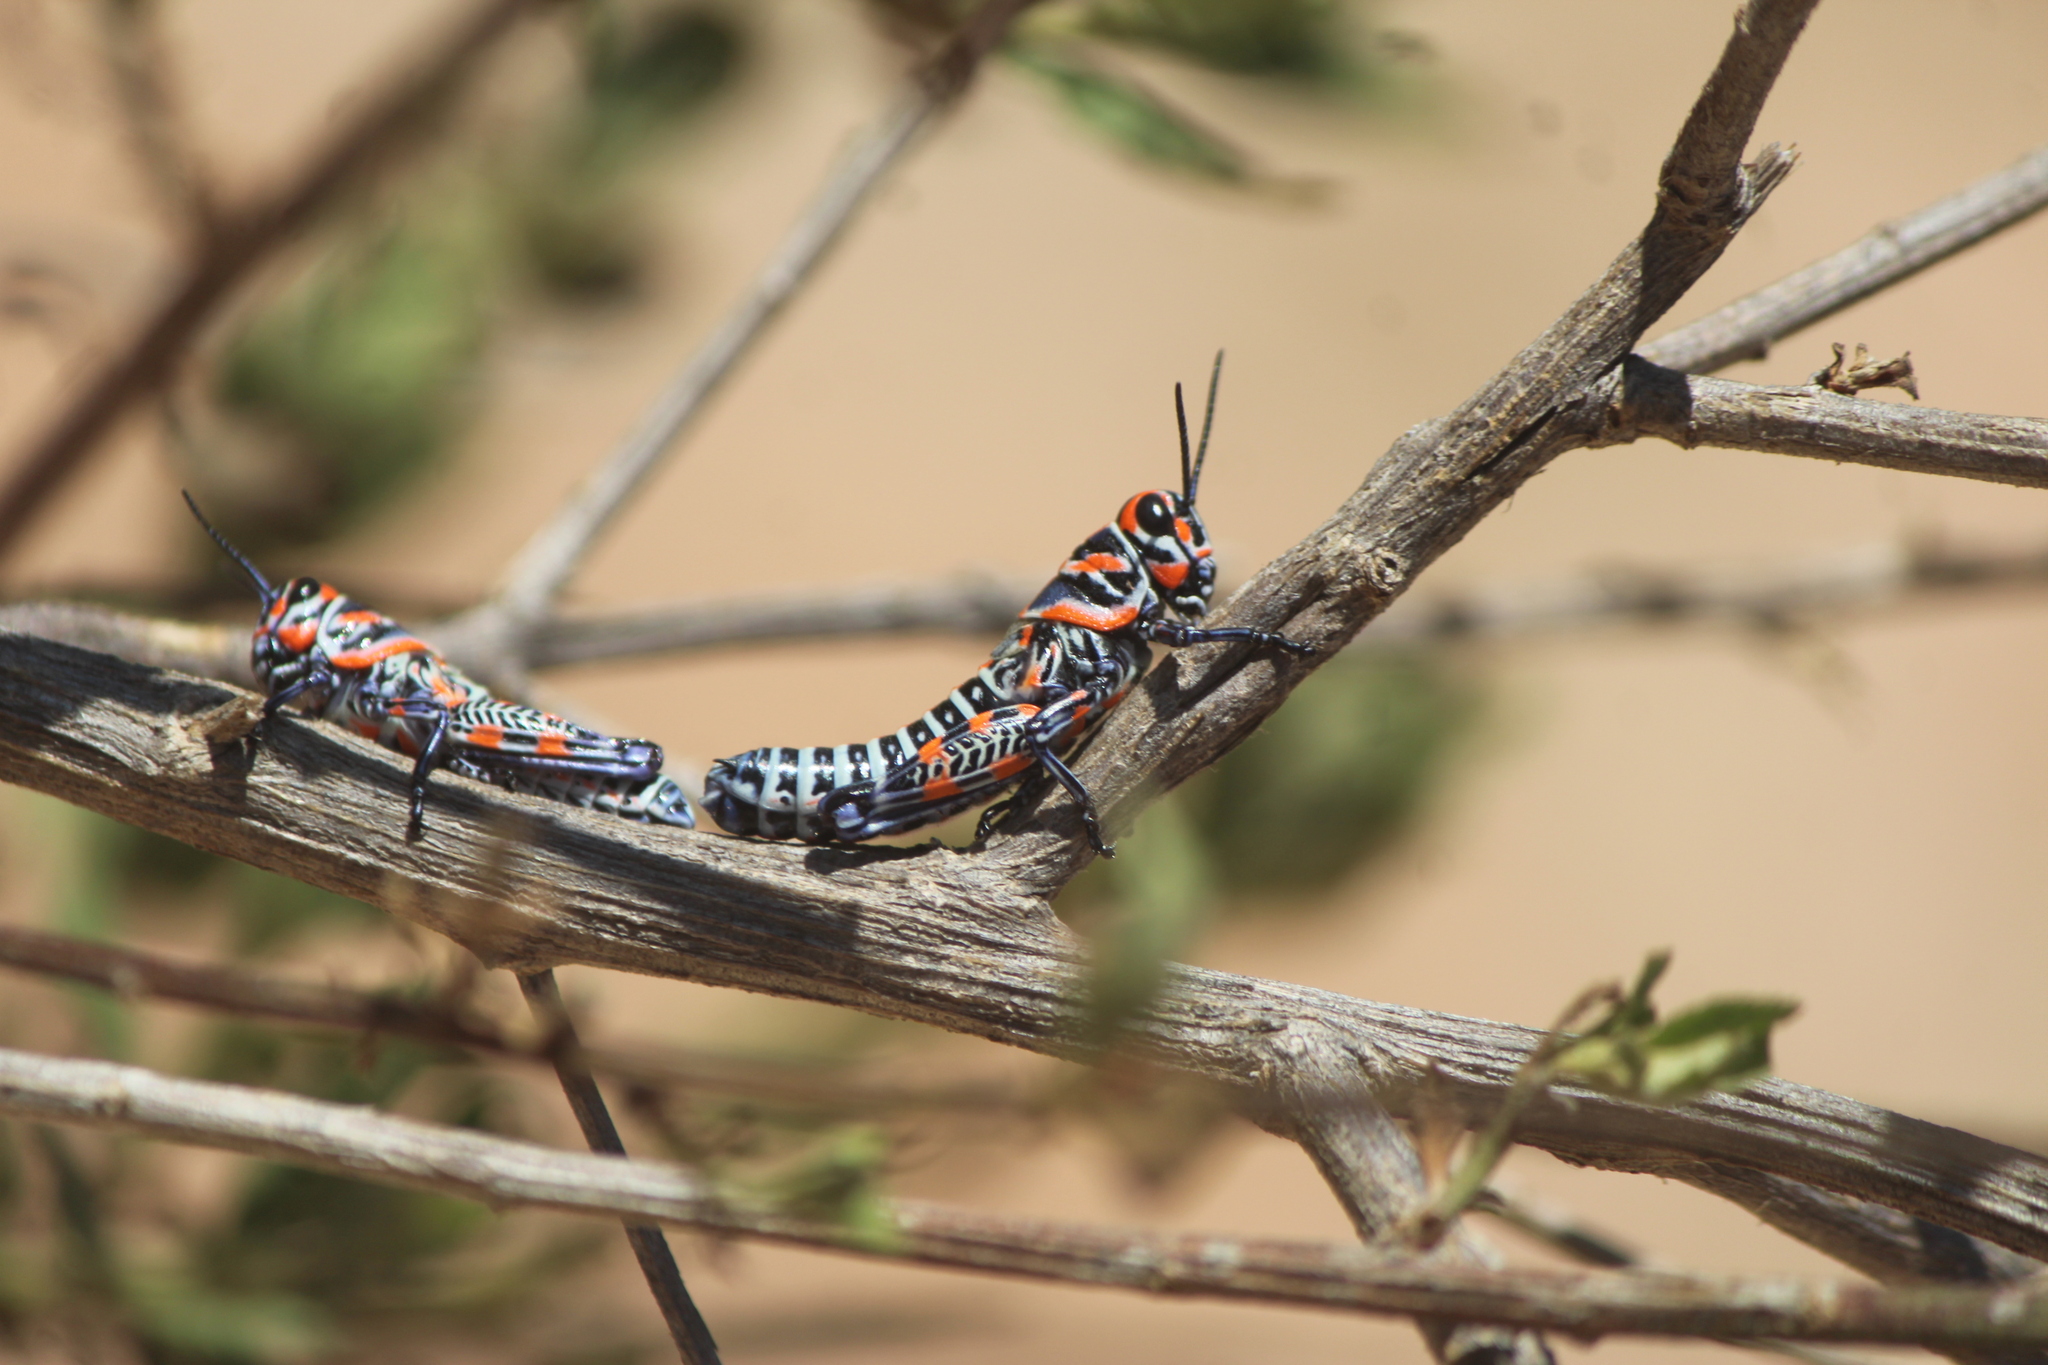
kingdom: Animalia
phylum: Arthropoda
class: Insecta
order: Orthoptera
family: Acrididae
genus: Dactylotum
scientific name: Dactylotum bicolor
